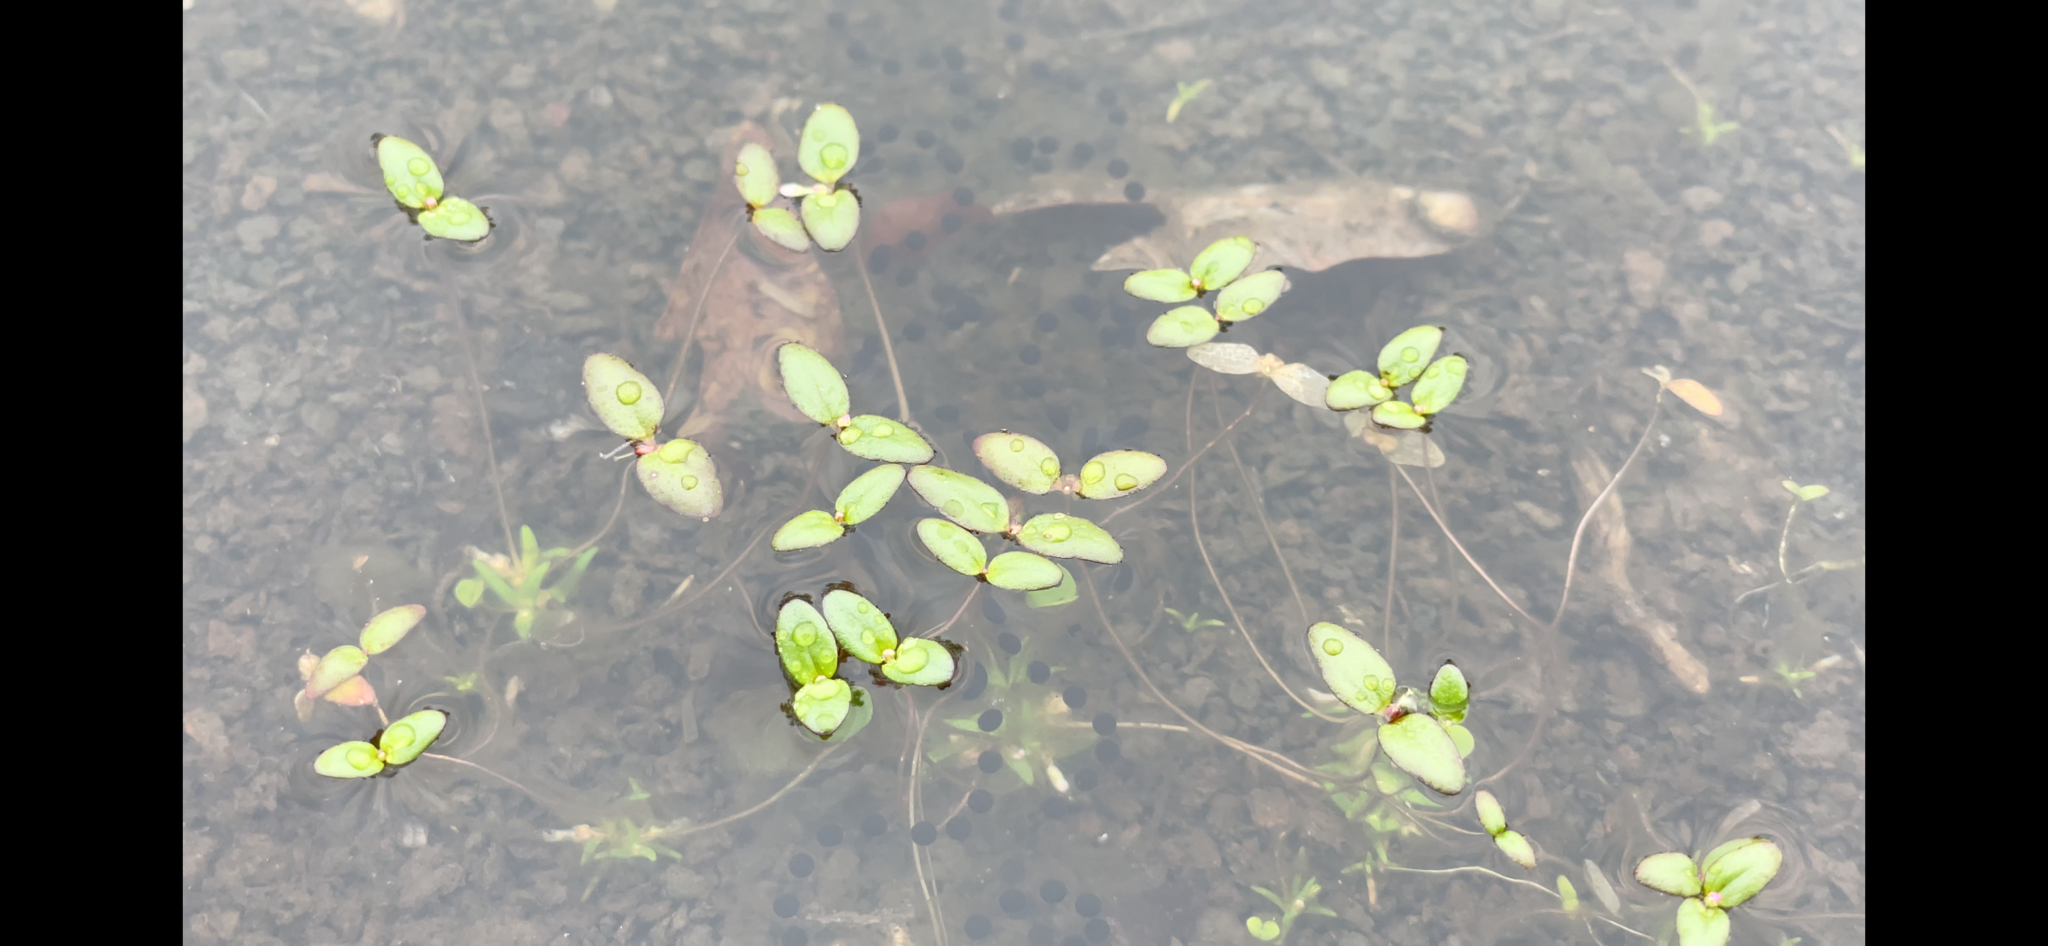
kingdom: Plantae
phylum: Tracheophyta
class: Magnoliopsida
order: Lamiales
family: Plantaginaceae
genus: Gratiola
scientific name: Gratiola amphiantha
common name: Little amphianthus
